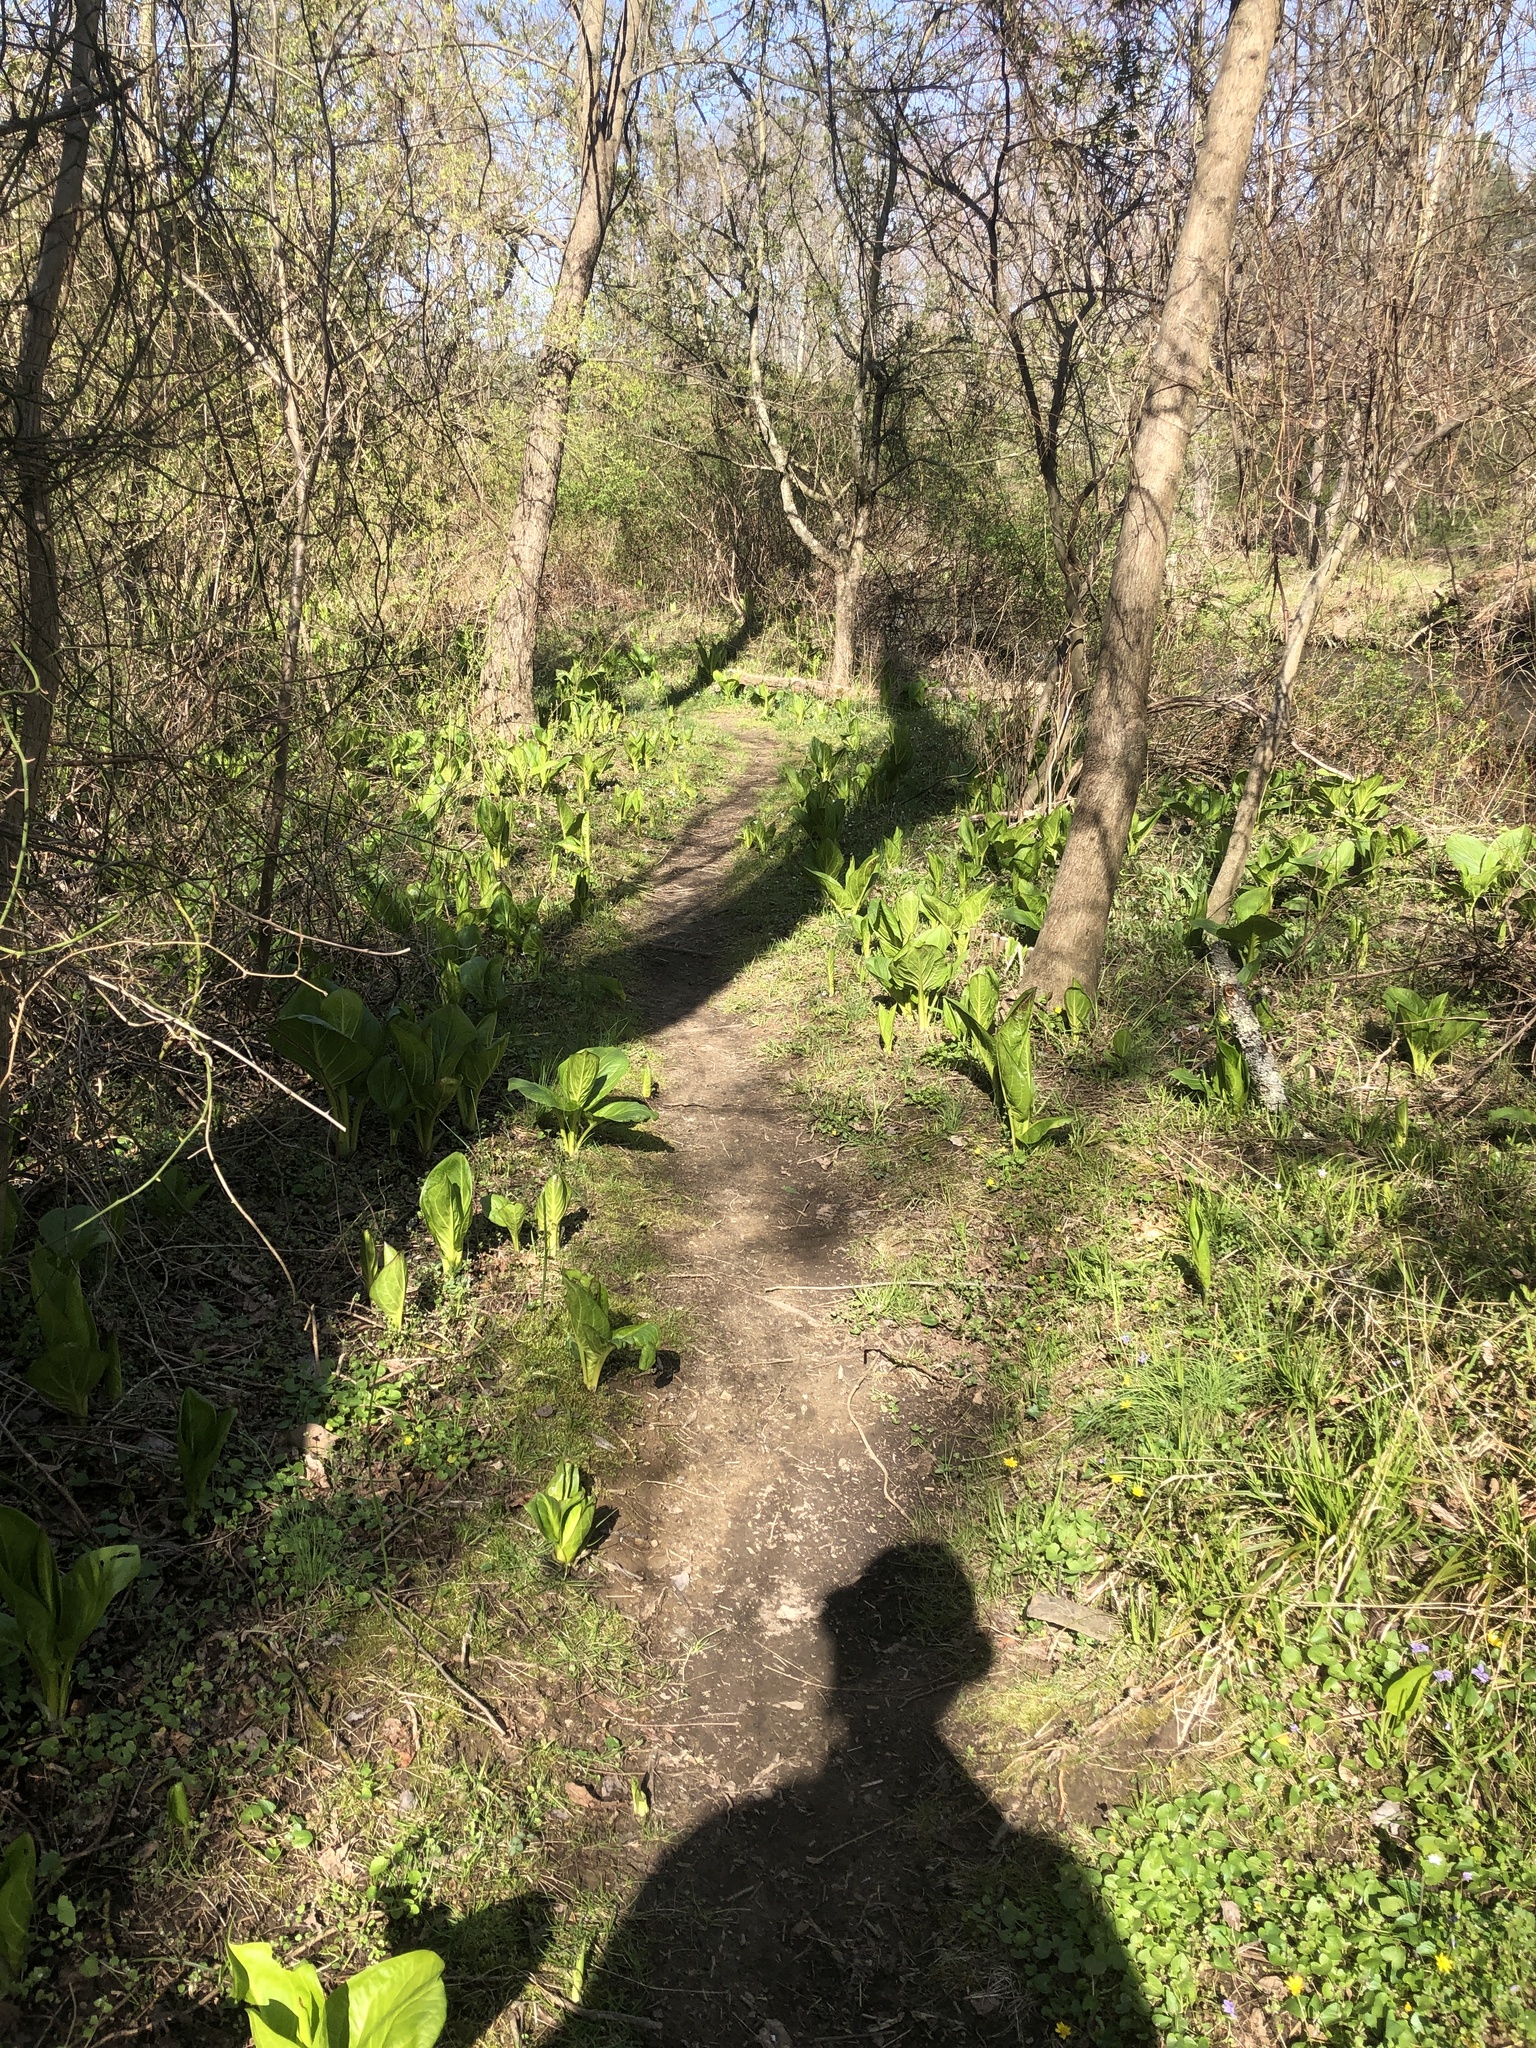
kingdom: Plantae
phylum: Tracheophyta
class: Liliopsida
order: Alismatales
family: Araceae
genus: Symplocarpus
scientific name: Symplocarpus foetidus
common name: Eastern skunk cabbage
